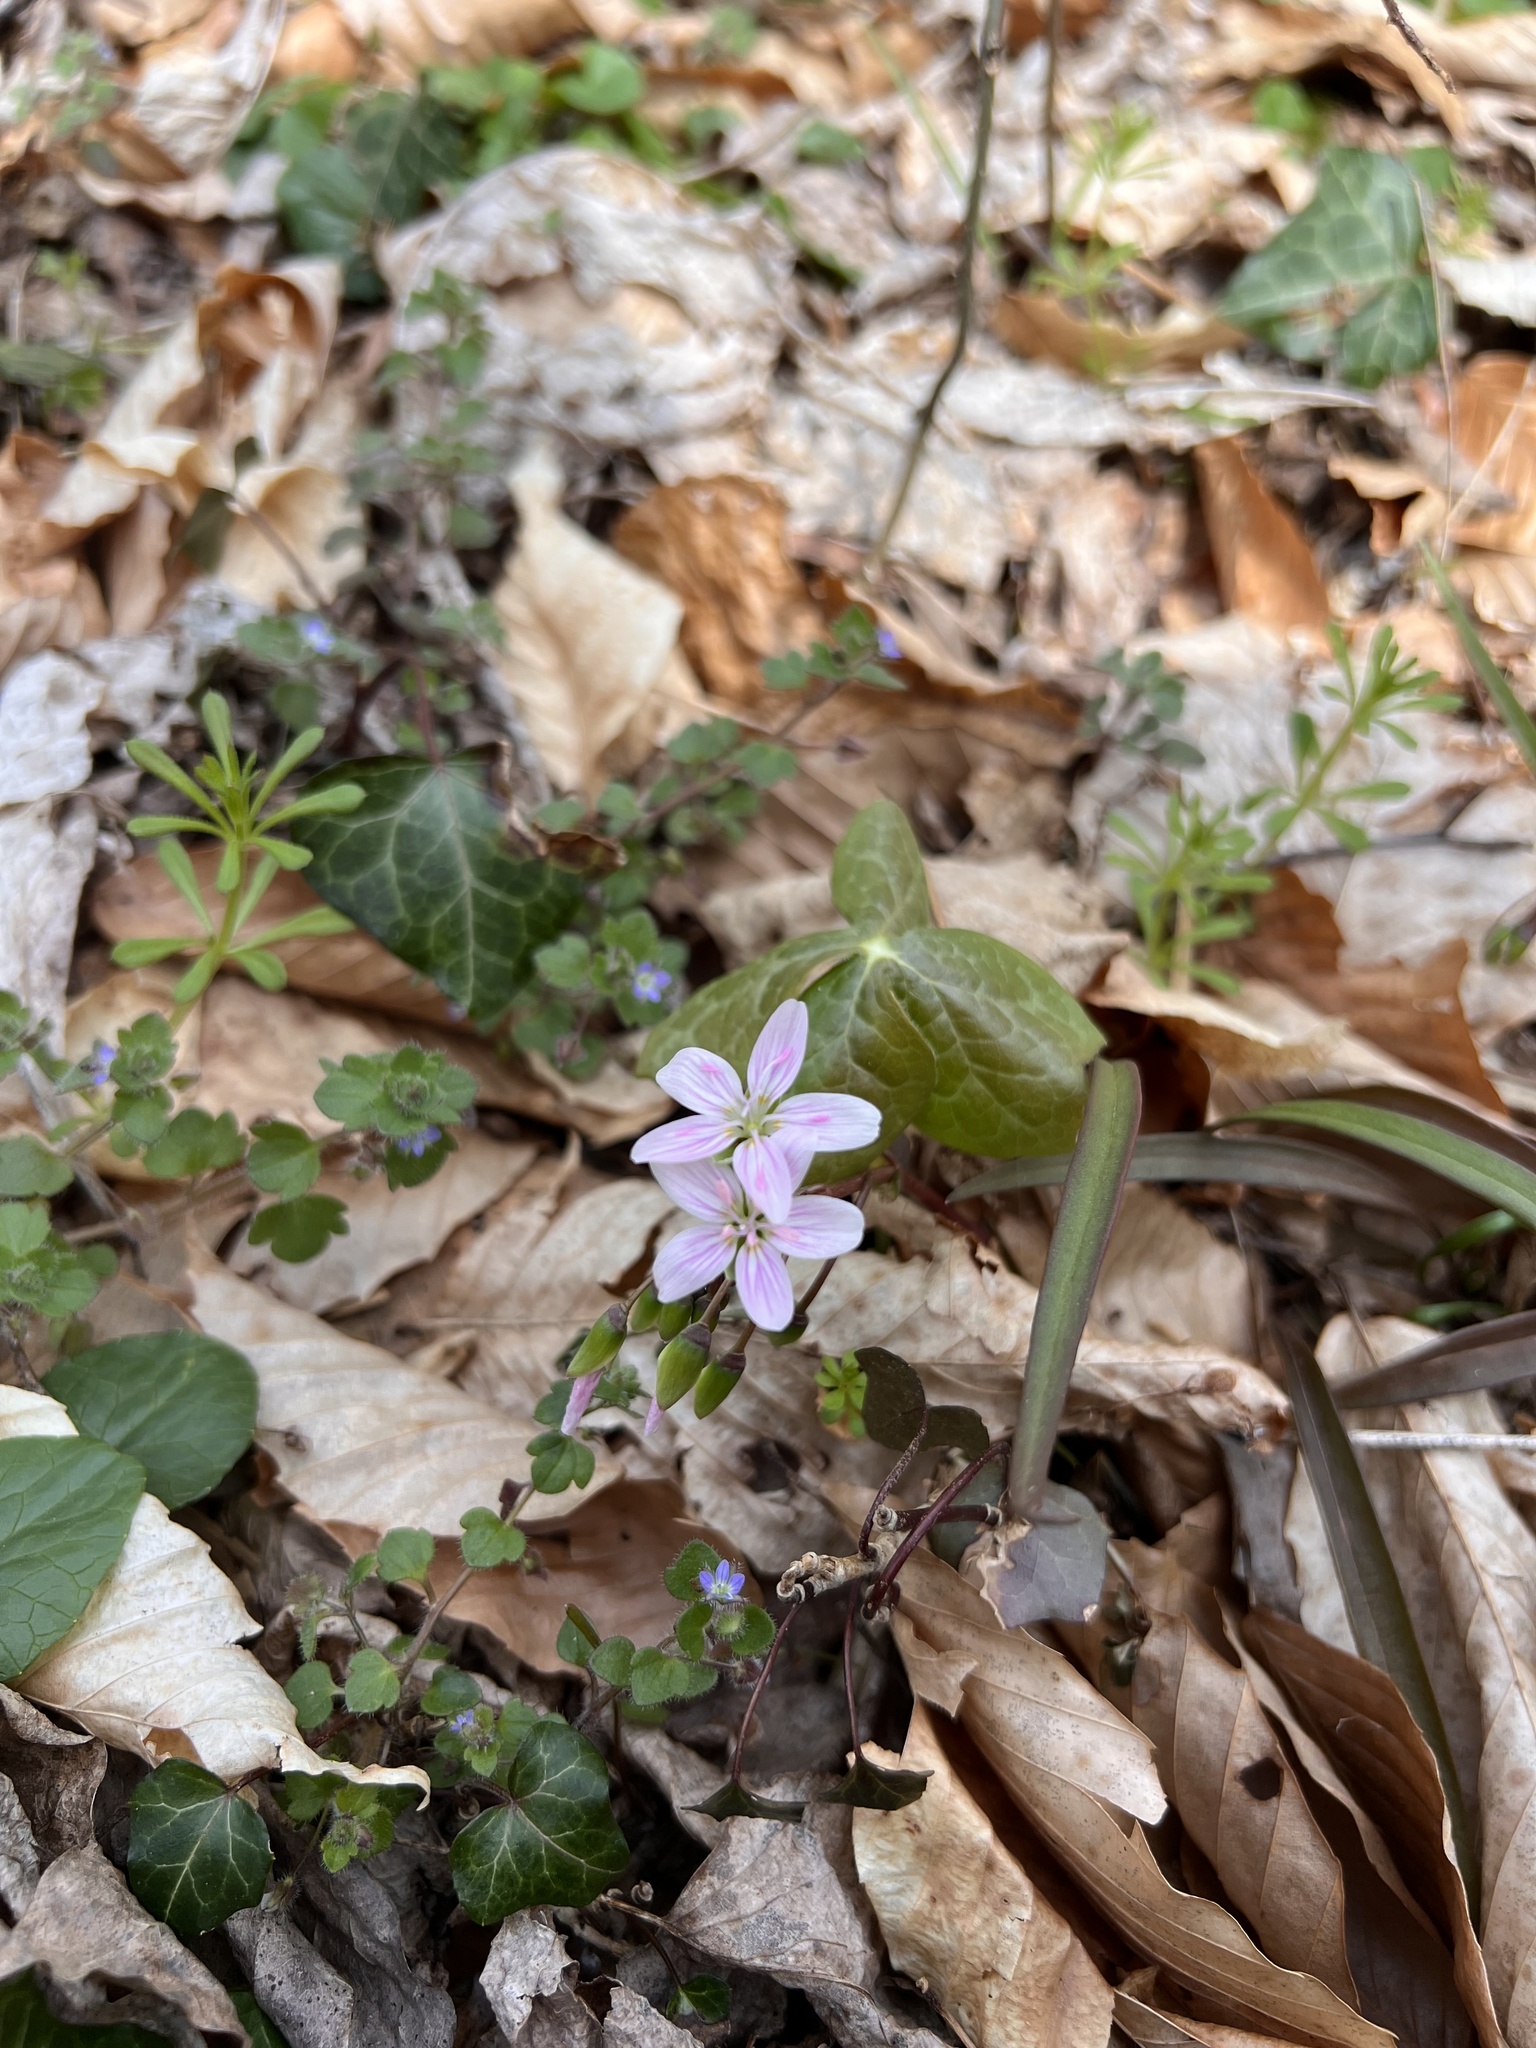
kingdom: Plantae
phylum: Tracheophyta
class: Magnoliopsida
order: Caryophyllales
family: Montiaceae
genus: Claytonia
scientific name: Claytonia virginica
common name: Virginia springbeauty
